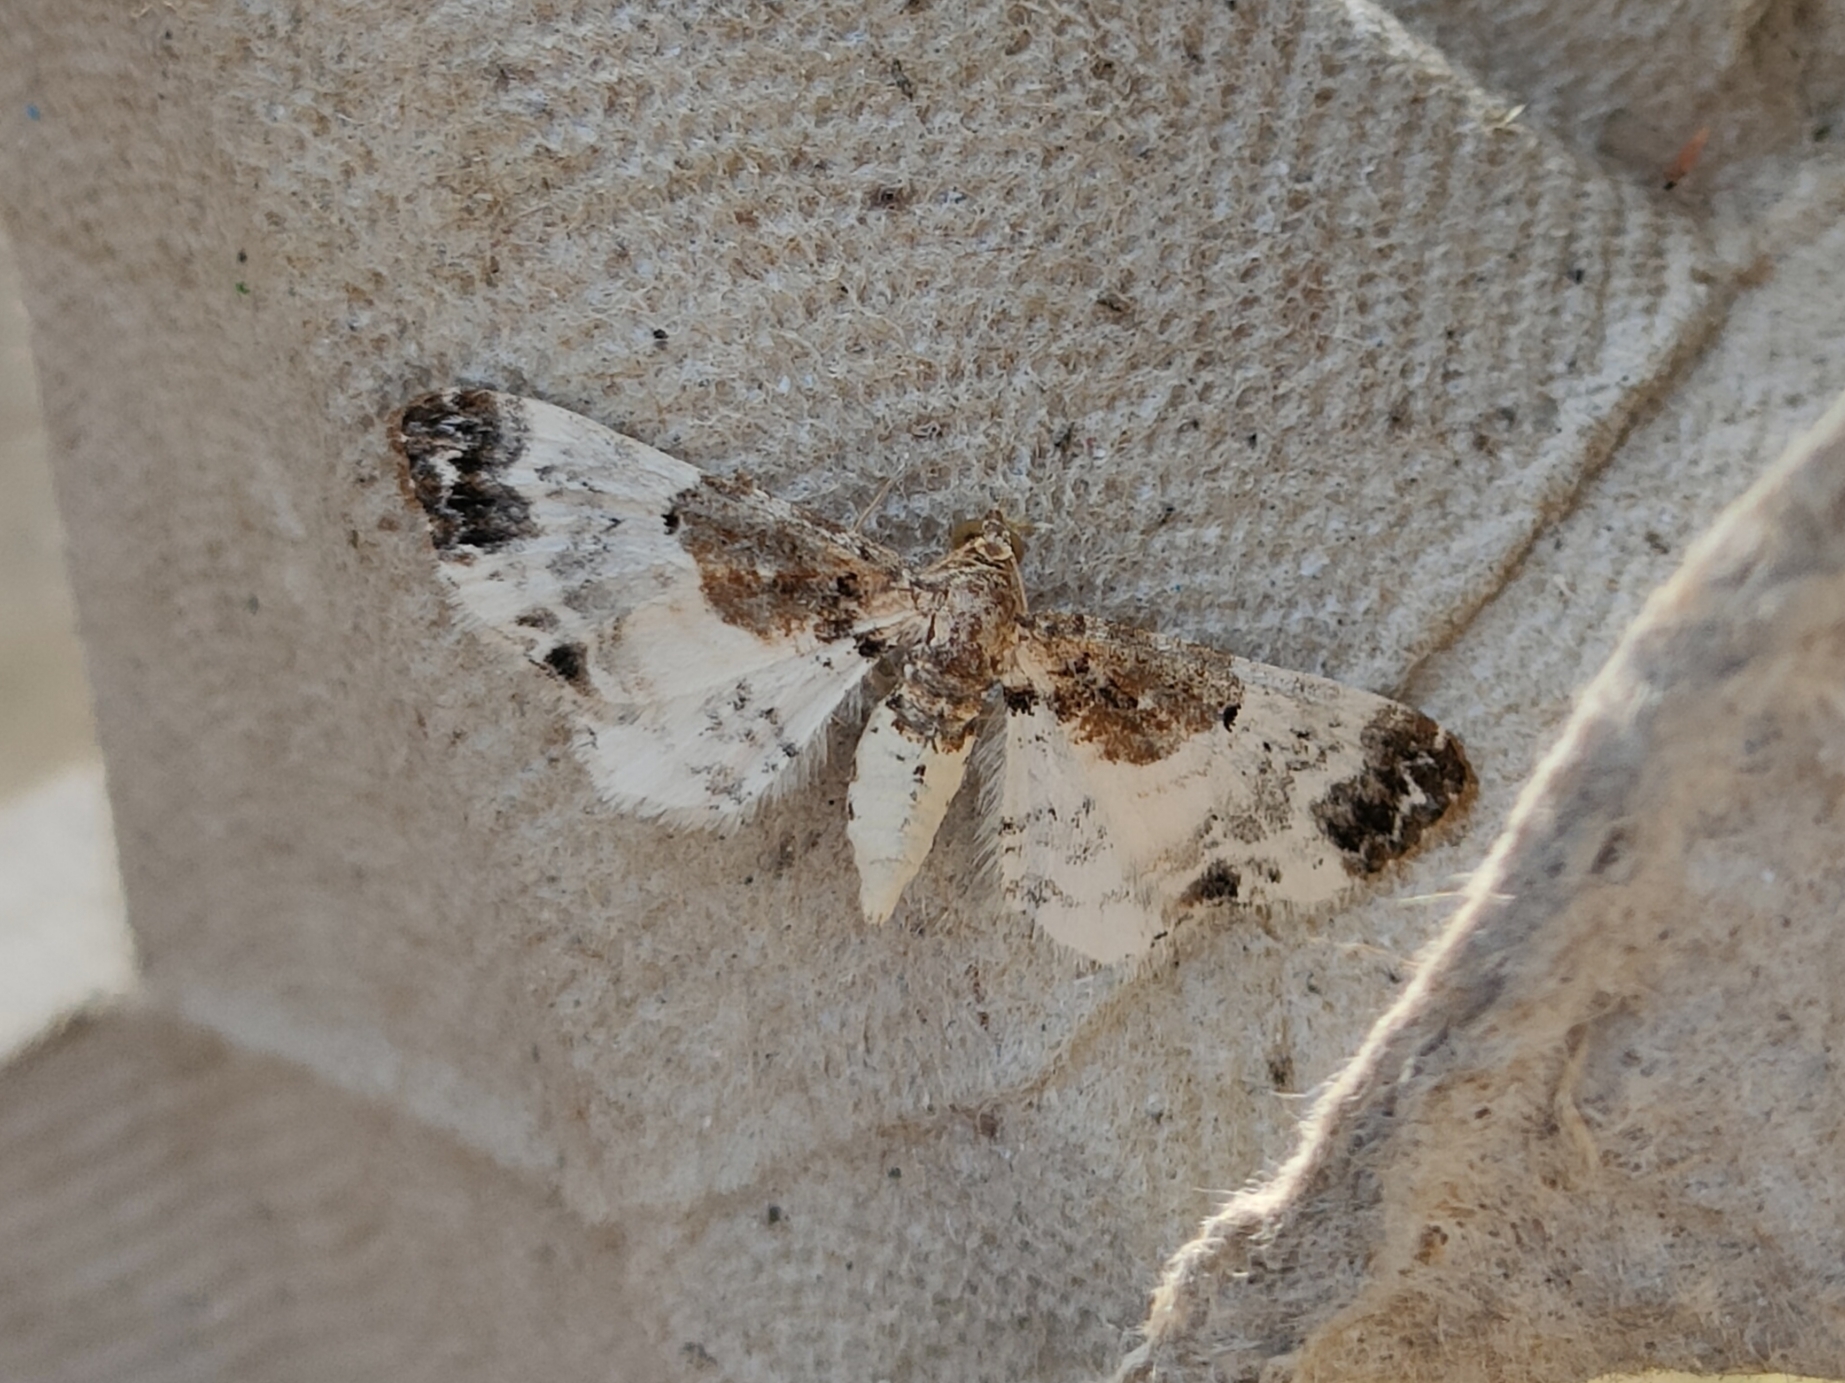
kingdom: Animalia
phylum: Arthropoda
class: Insecta
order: Lepidoptera
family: Geometridae
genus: Eupithecia
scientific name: Eupithecia breviculata
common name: Rusty-shouldered pug
